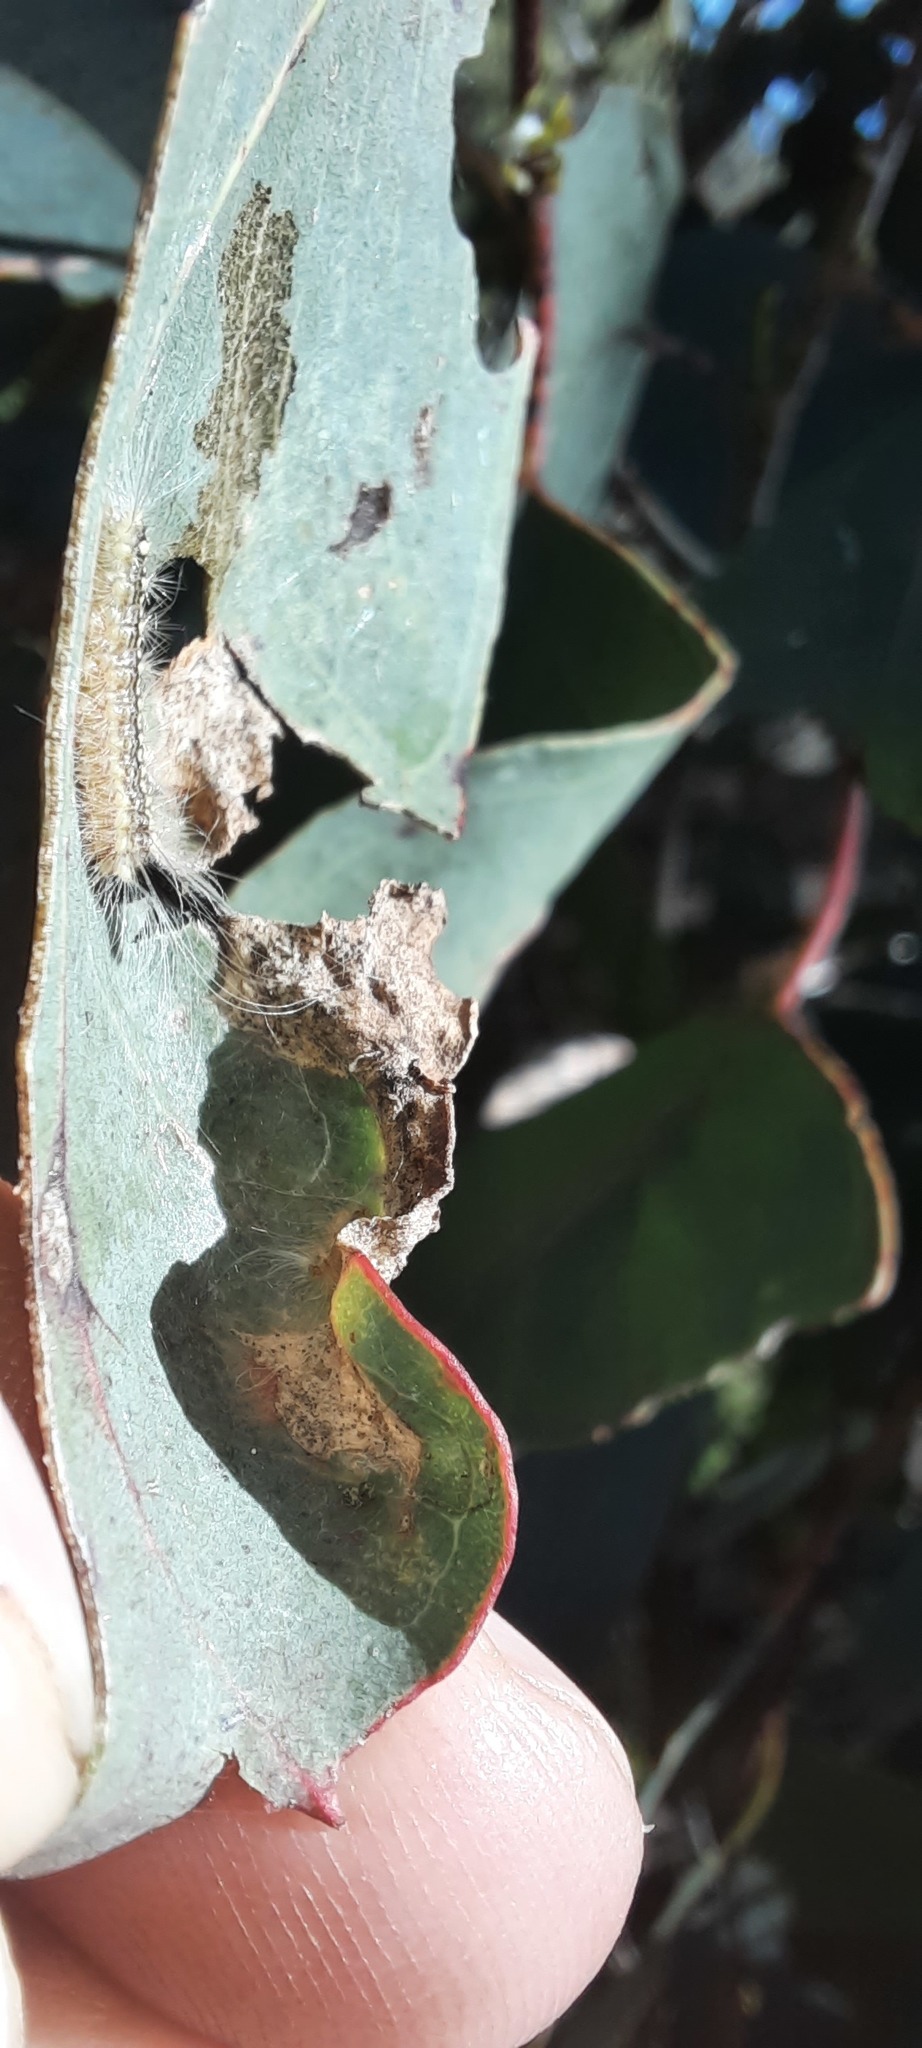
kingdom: Animalia
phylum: Arthropoda
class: Insecta
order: Lepidoptera
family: Nolidae
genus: Uraba
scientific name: Uraba lugens
